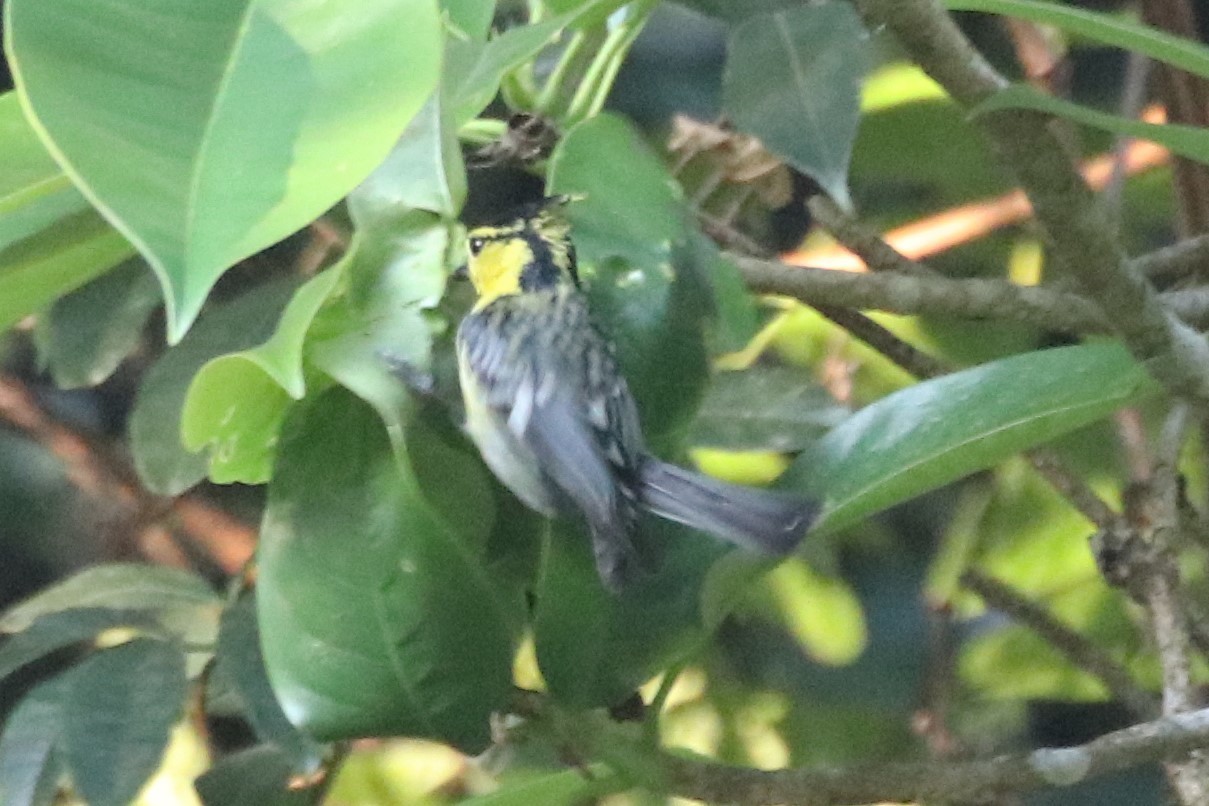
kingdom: Animalia
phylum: Chordata
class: Aves
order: Passeriformes
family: Paridae
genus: Parus
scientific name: Parus spilonotus
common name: Yellow-cheeked tit
